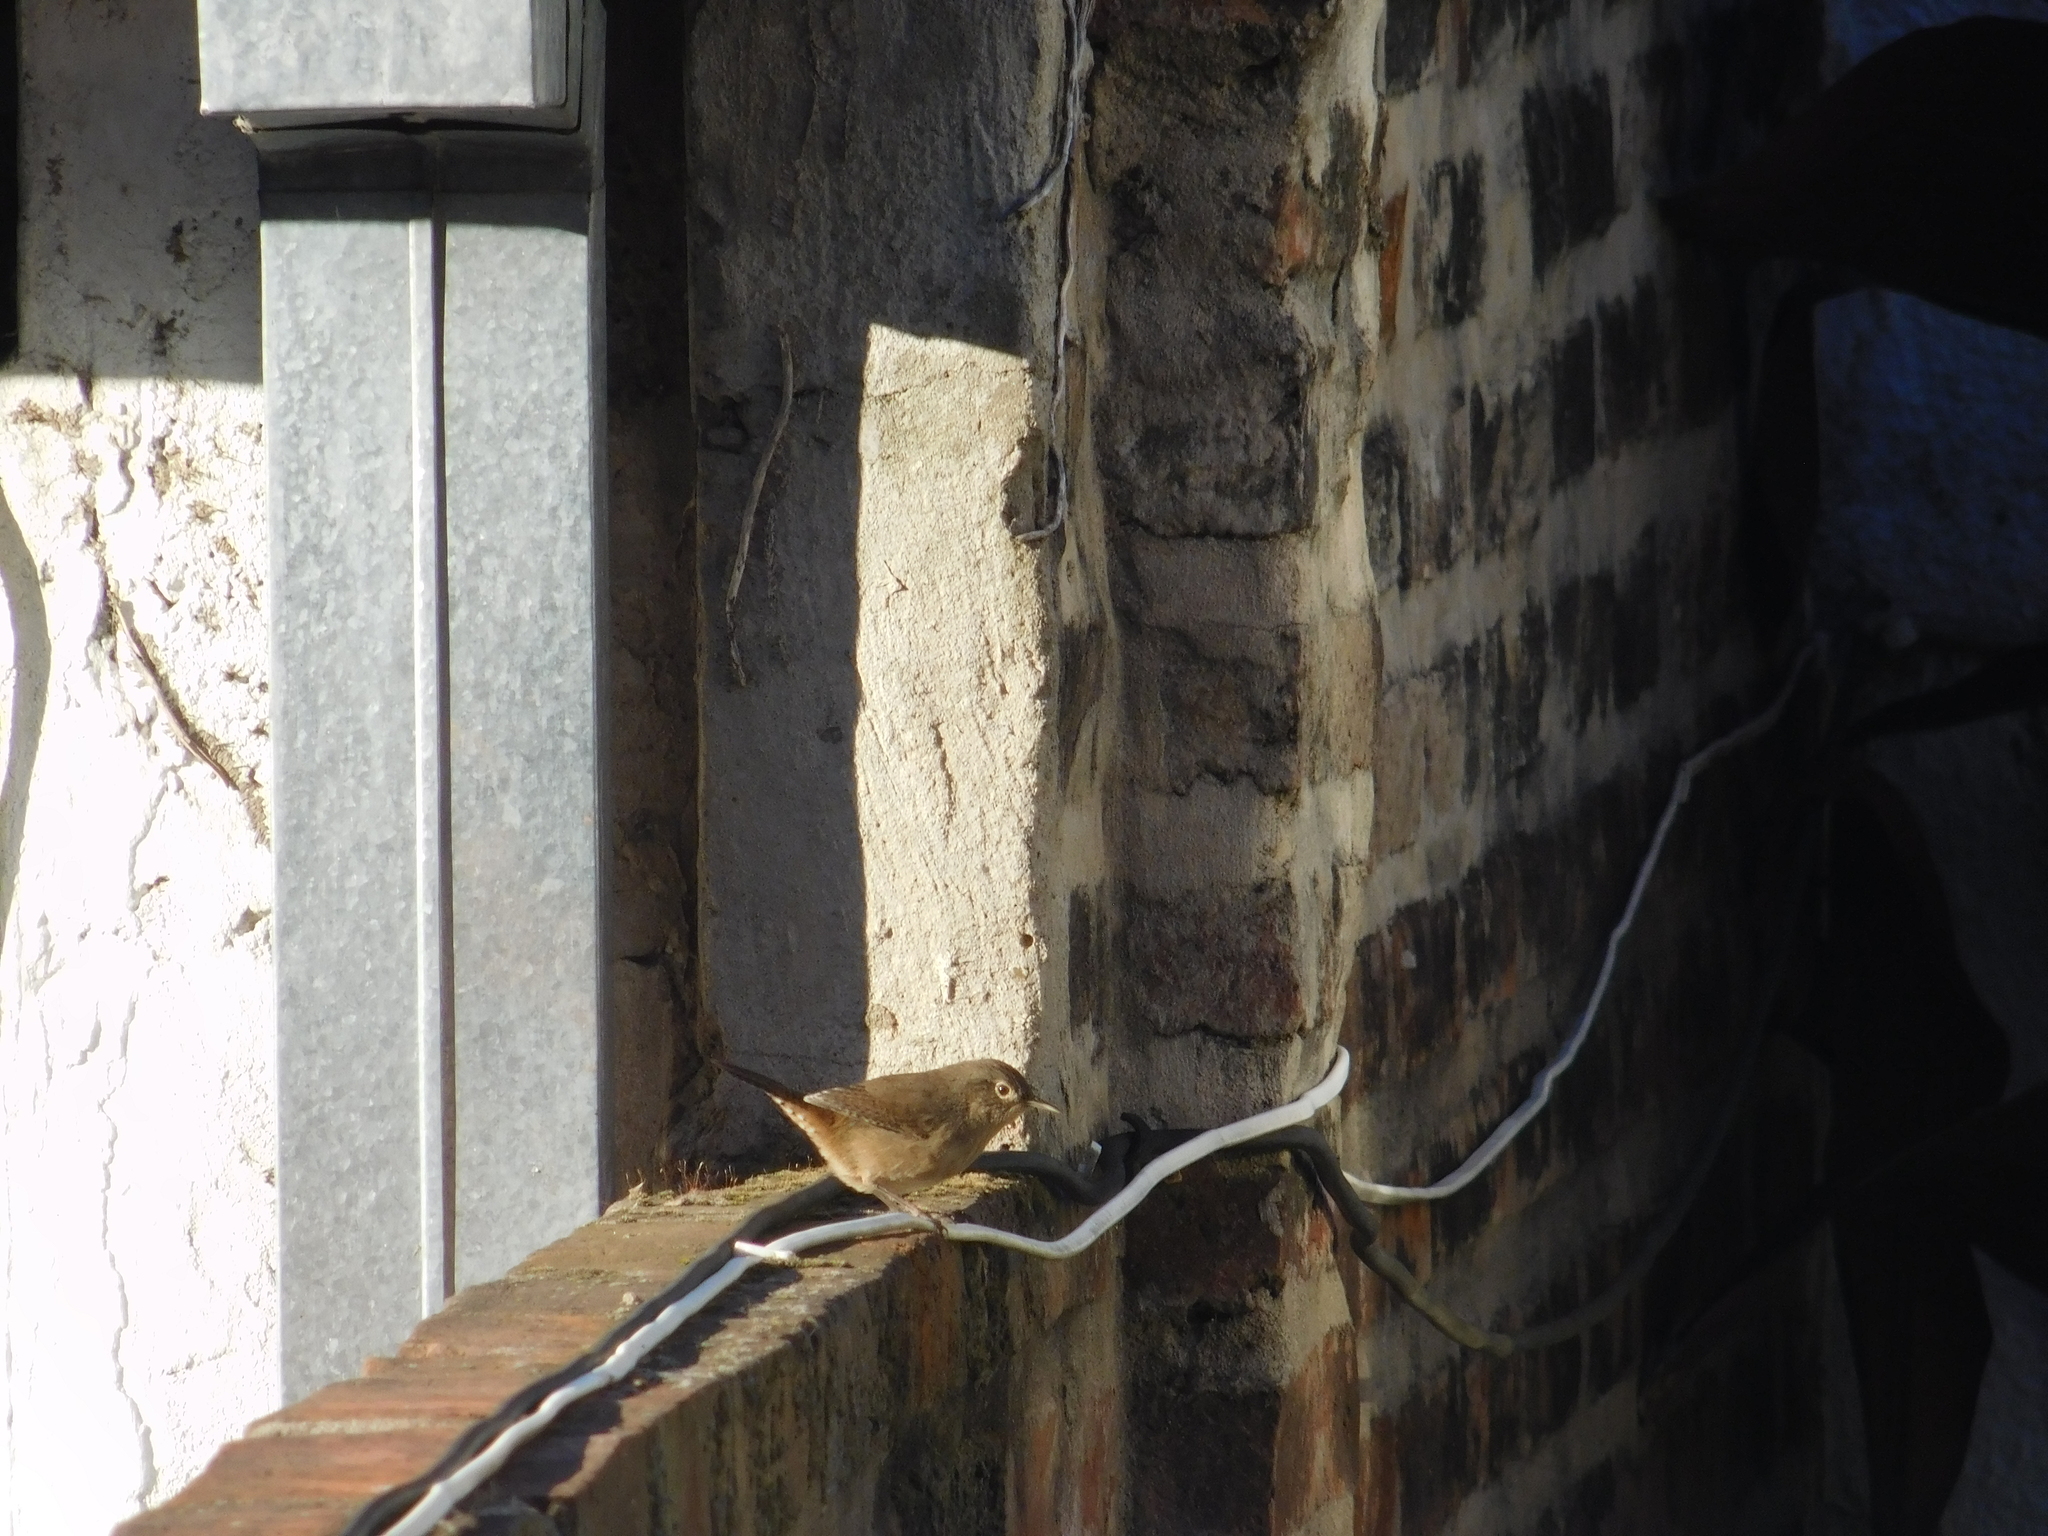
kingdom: Animalia
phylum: Chordata
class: Aves
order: Passeriformes
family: Troglodytidae
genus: Troglodytes
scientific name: Troglodytes aedon
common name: House wren
